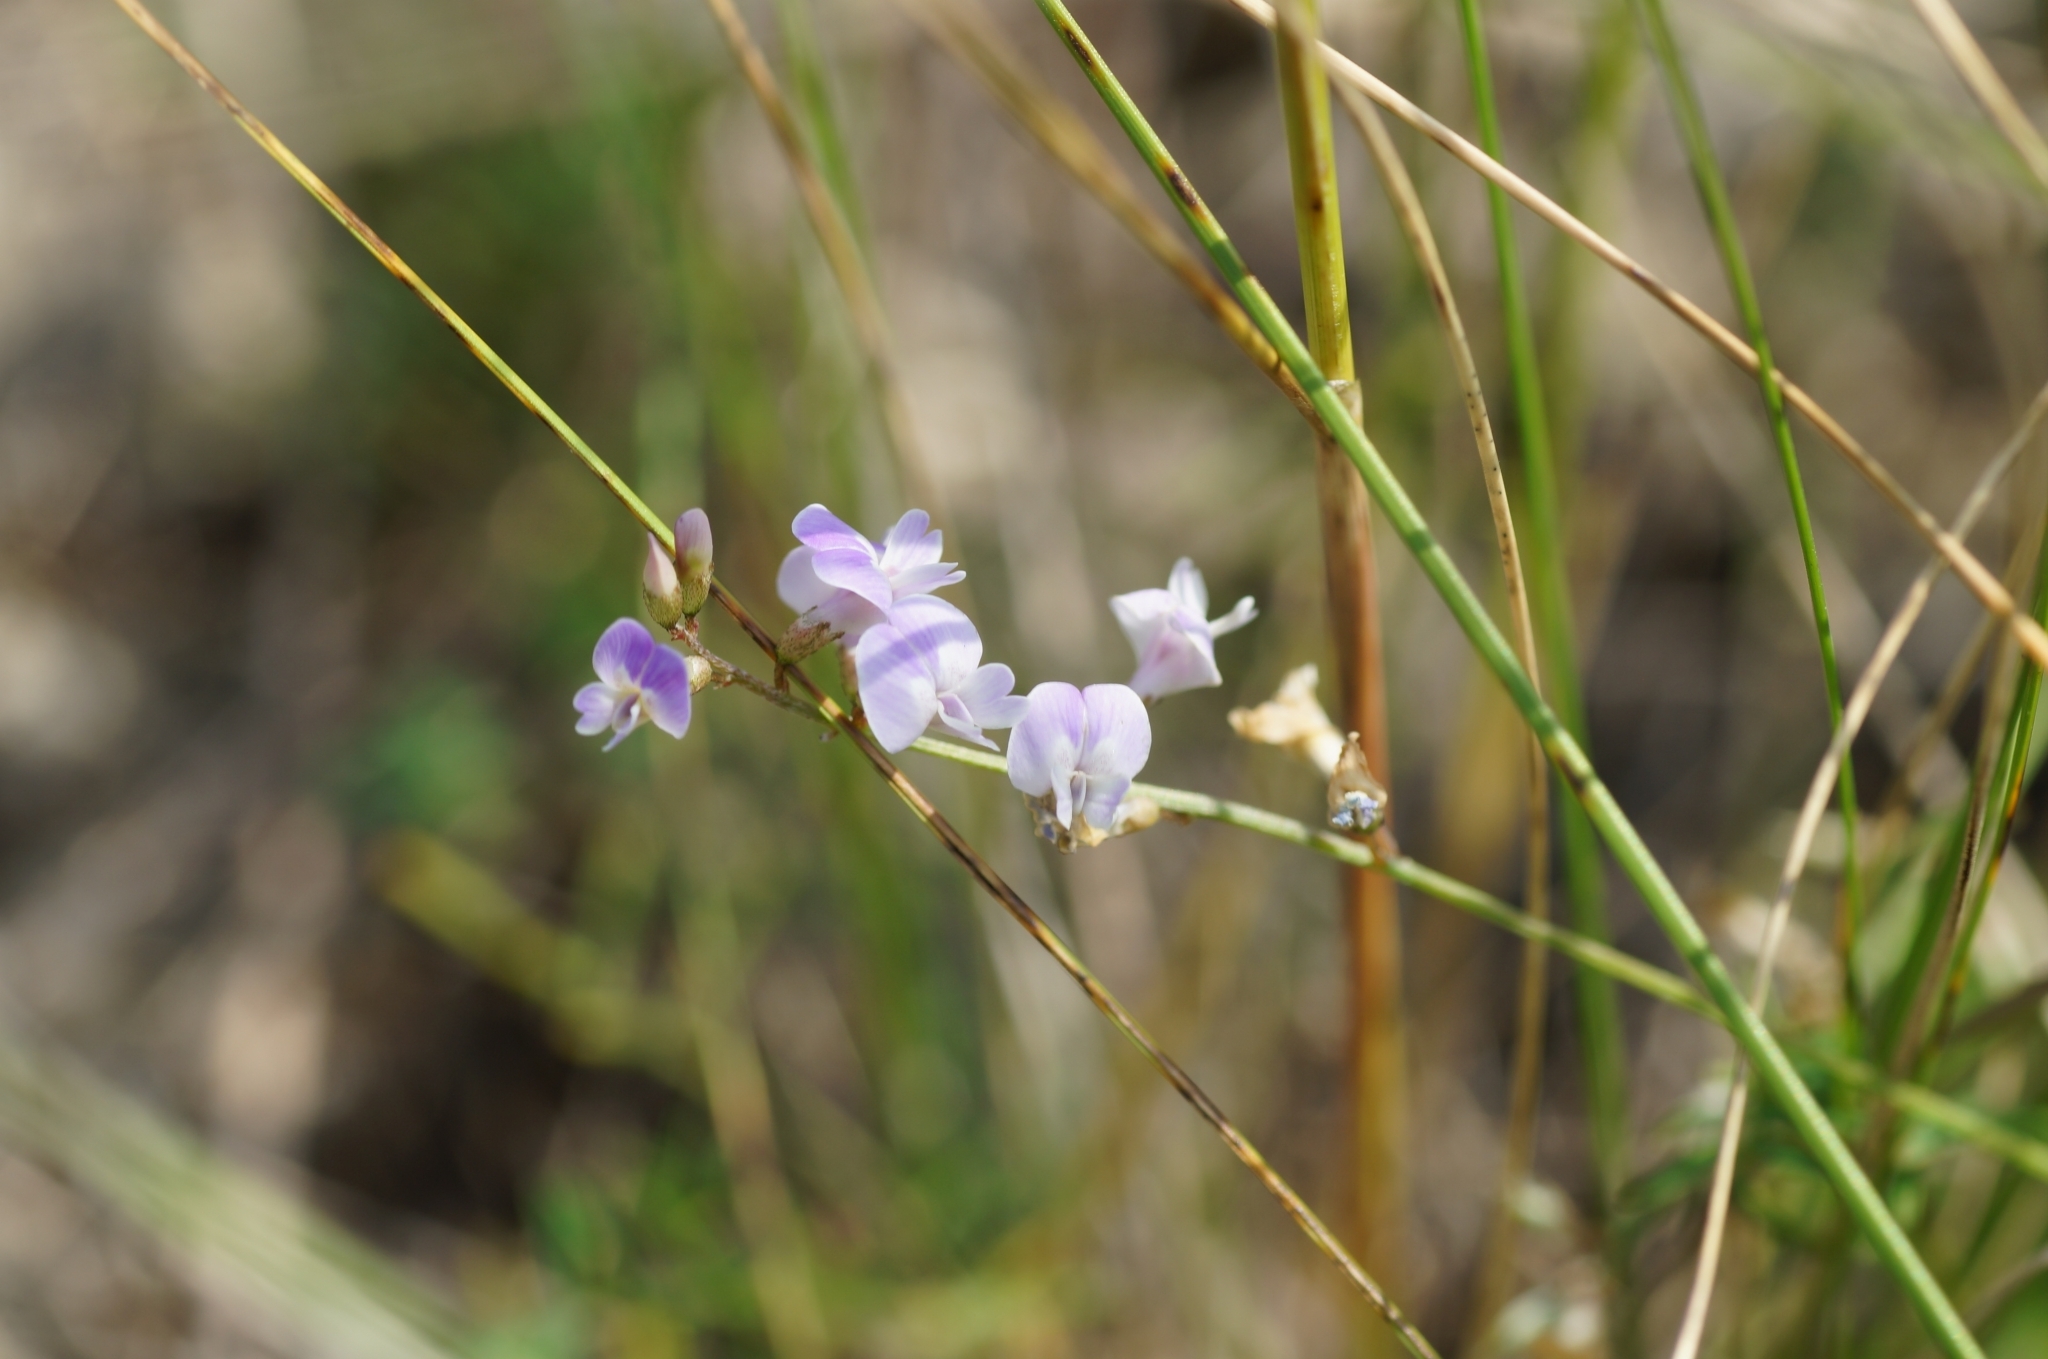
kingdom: Plantae
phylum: Tracheophyta
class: Magnoliopsida
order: Fabales
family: Fabaceae
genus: Astragalus
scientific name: Astragalus austriacus
